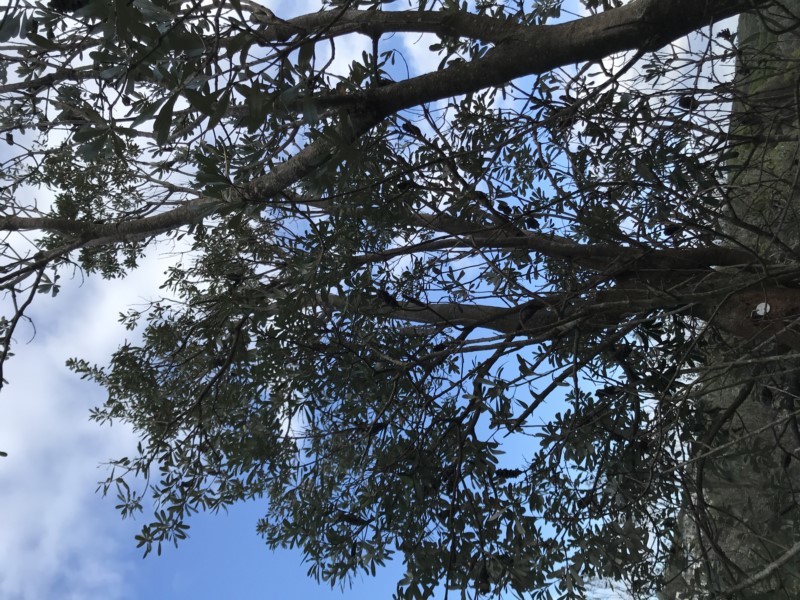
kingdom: Plantae
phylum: Tracheophyta
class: Magnoliopsida
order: Proteales
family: Proteaceae
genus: Banksia
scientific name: Banksia integrifolia
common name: White-honeysuckle
